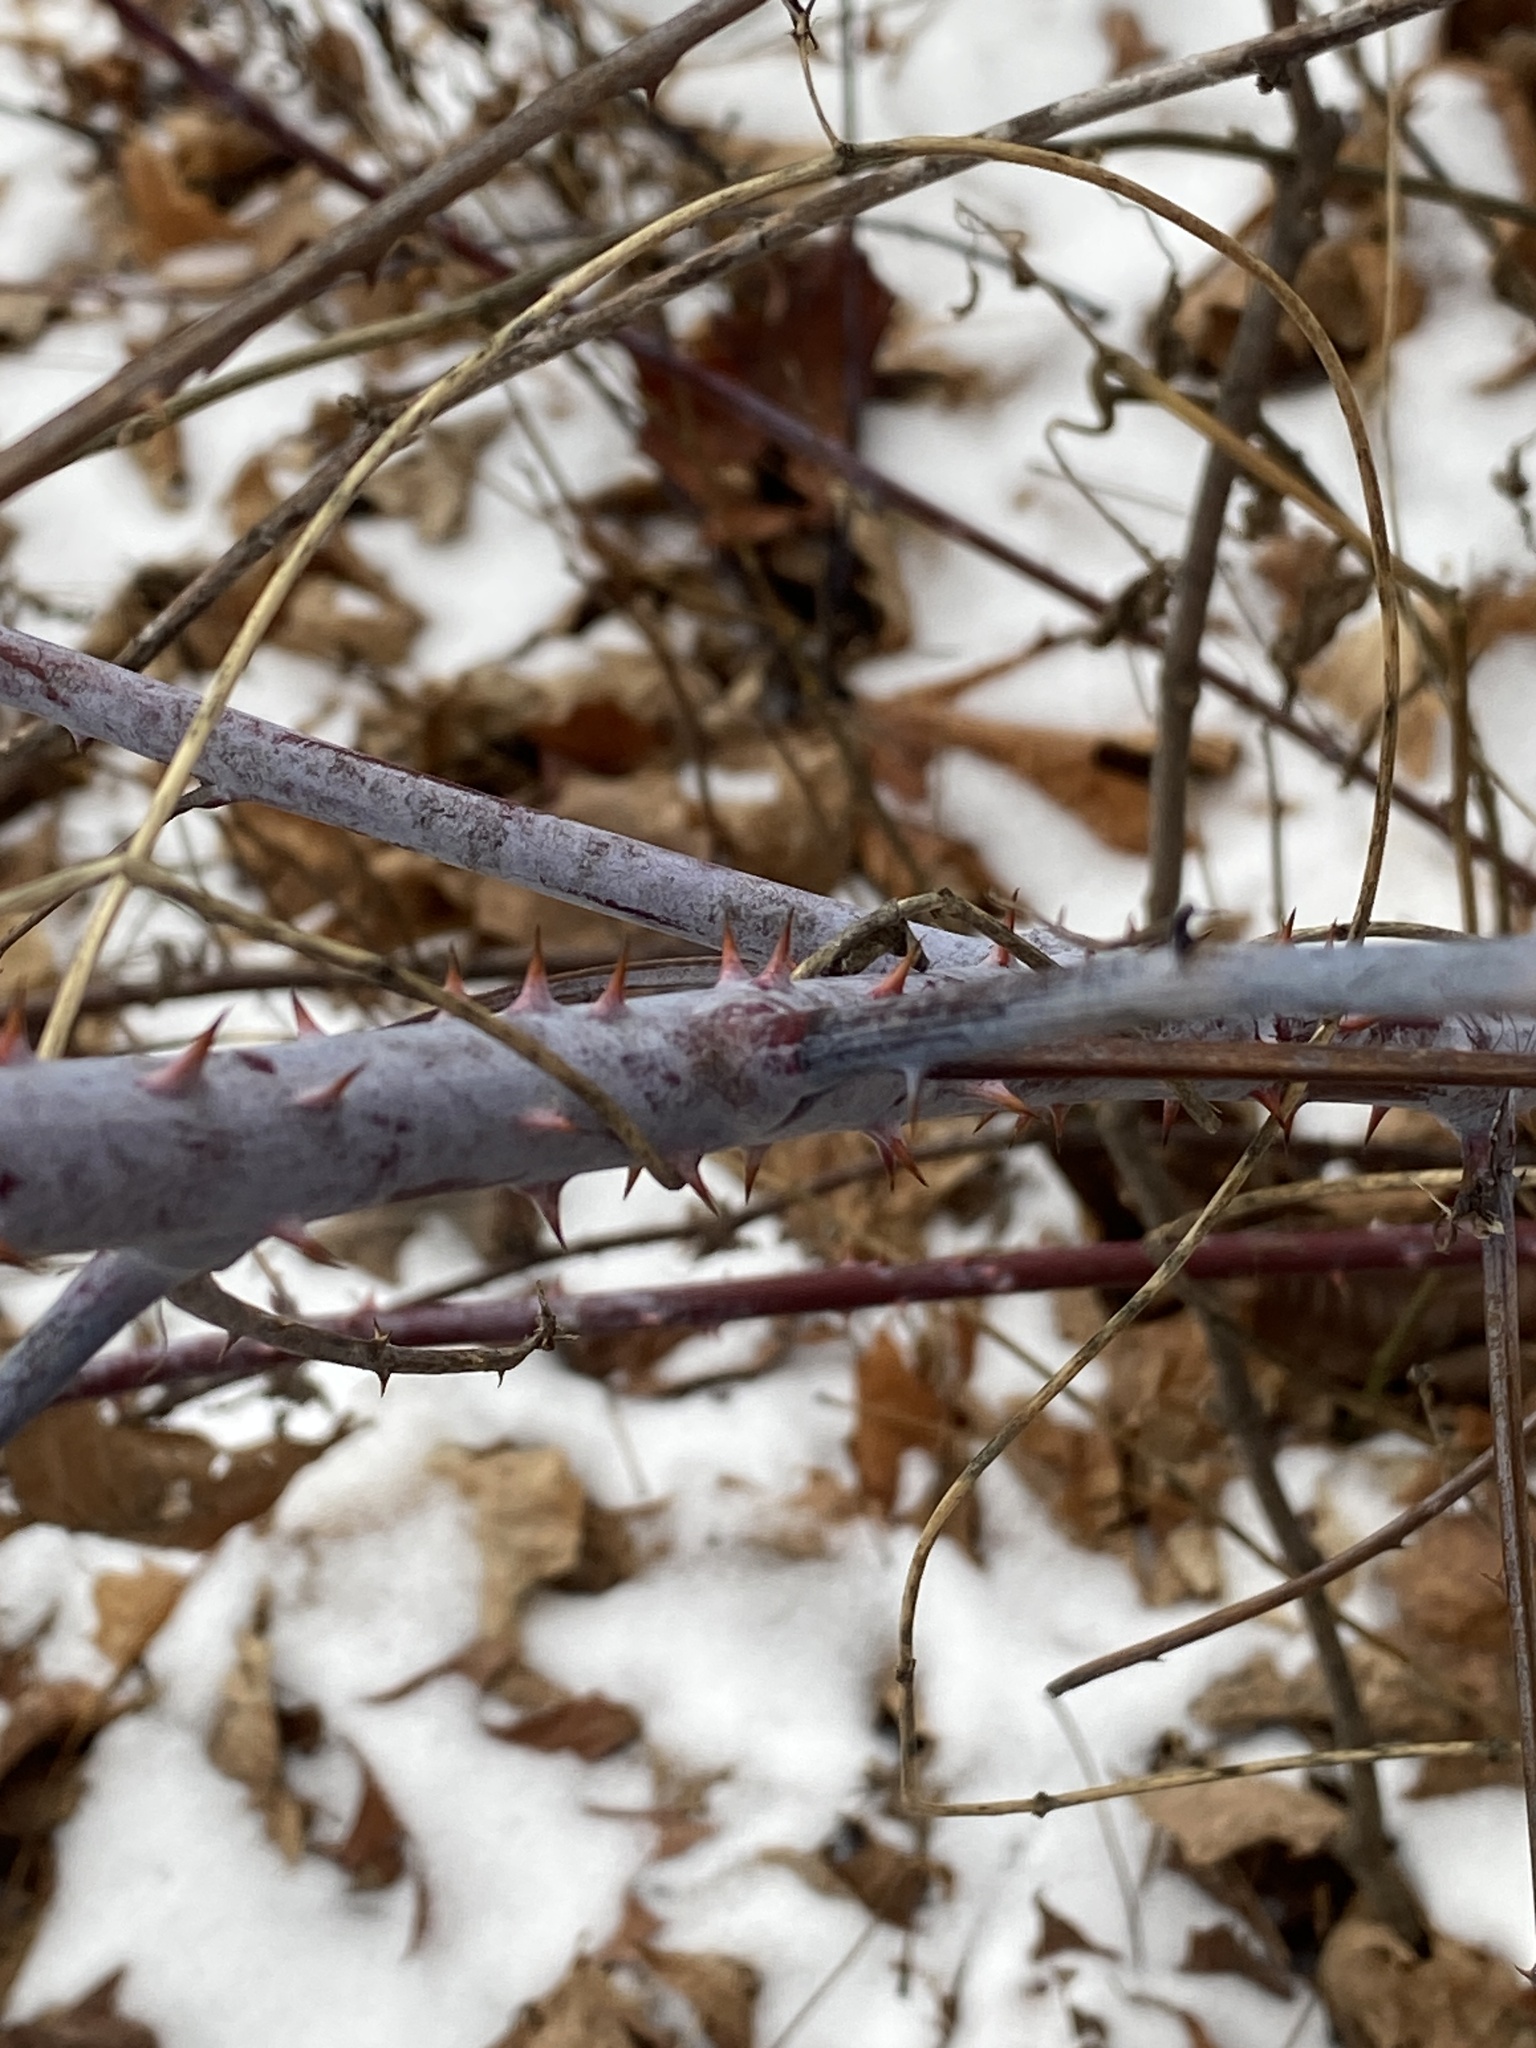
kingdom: Plantae
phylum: Tracheophyta
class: Magnoliopsida
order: Rosales
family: Rosaceae
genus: Rubus
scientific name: Rubus occidentalis
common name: Black raspberry
